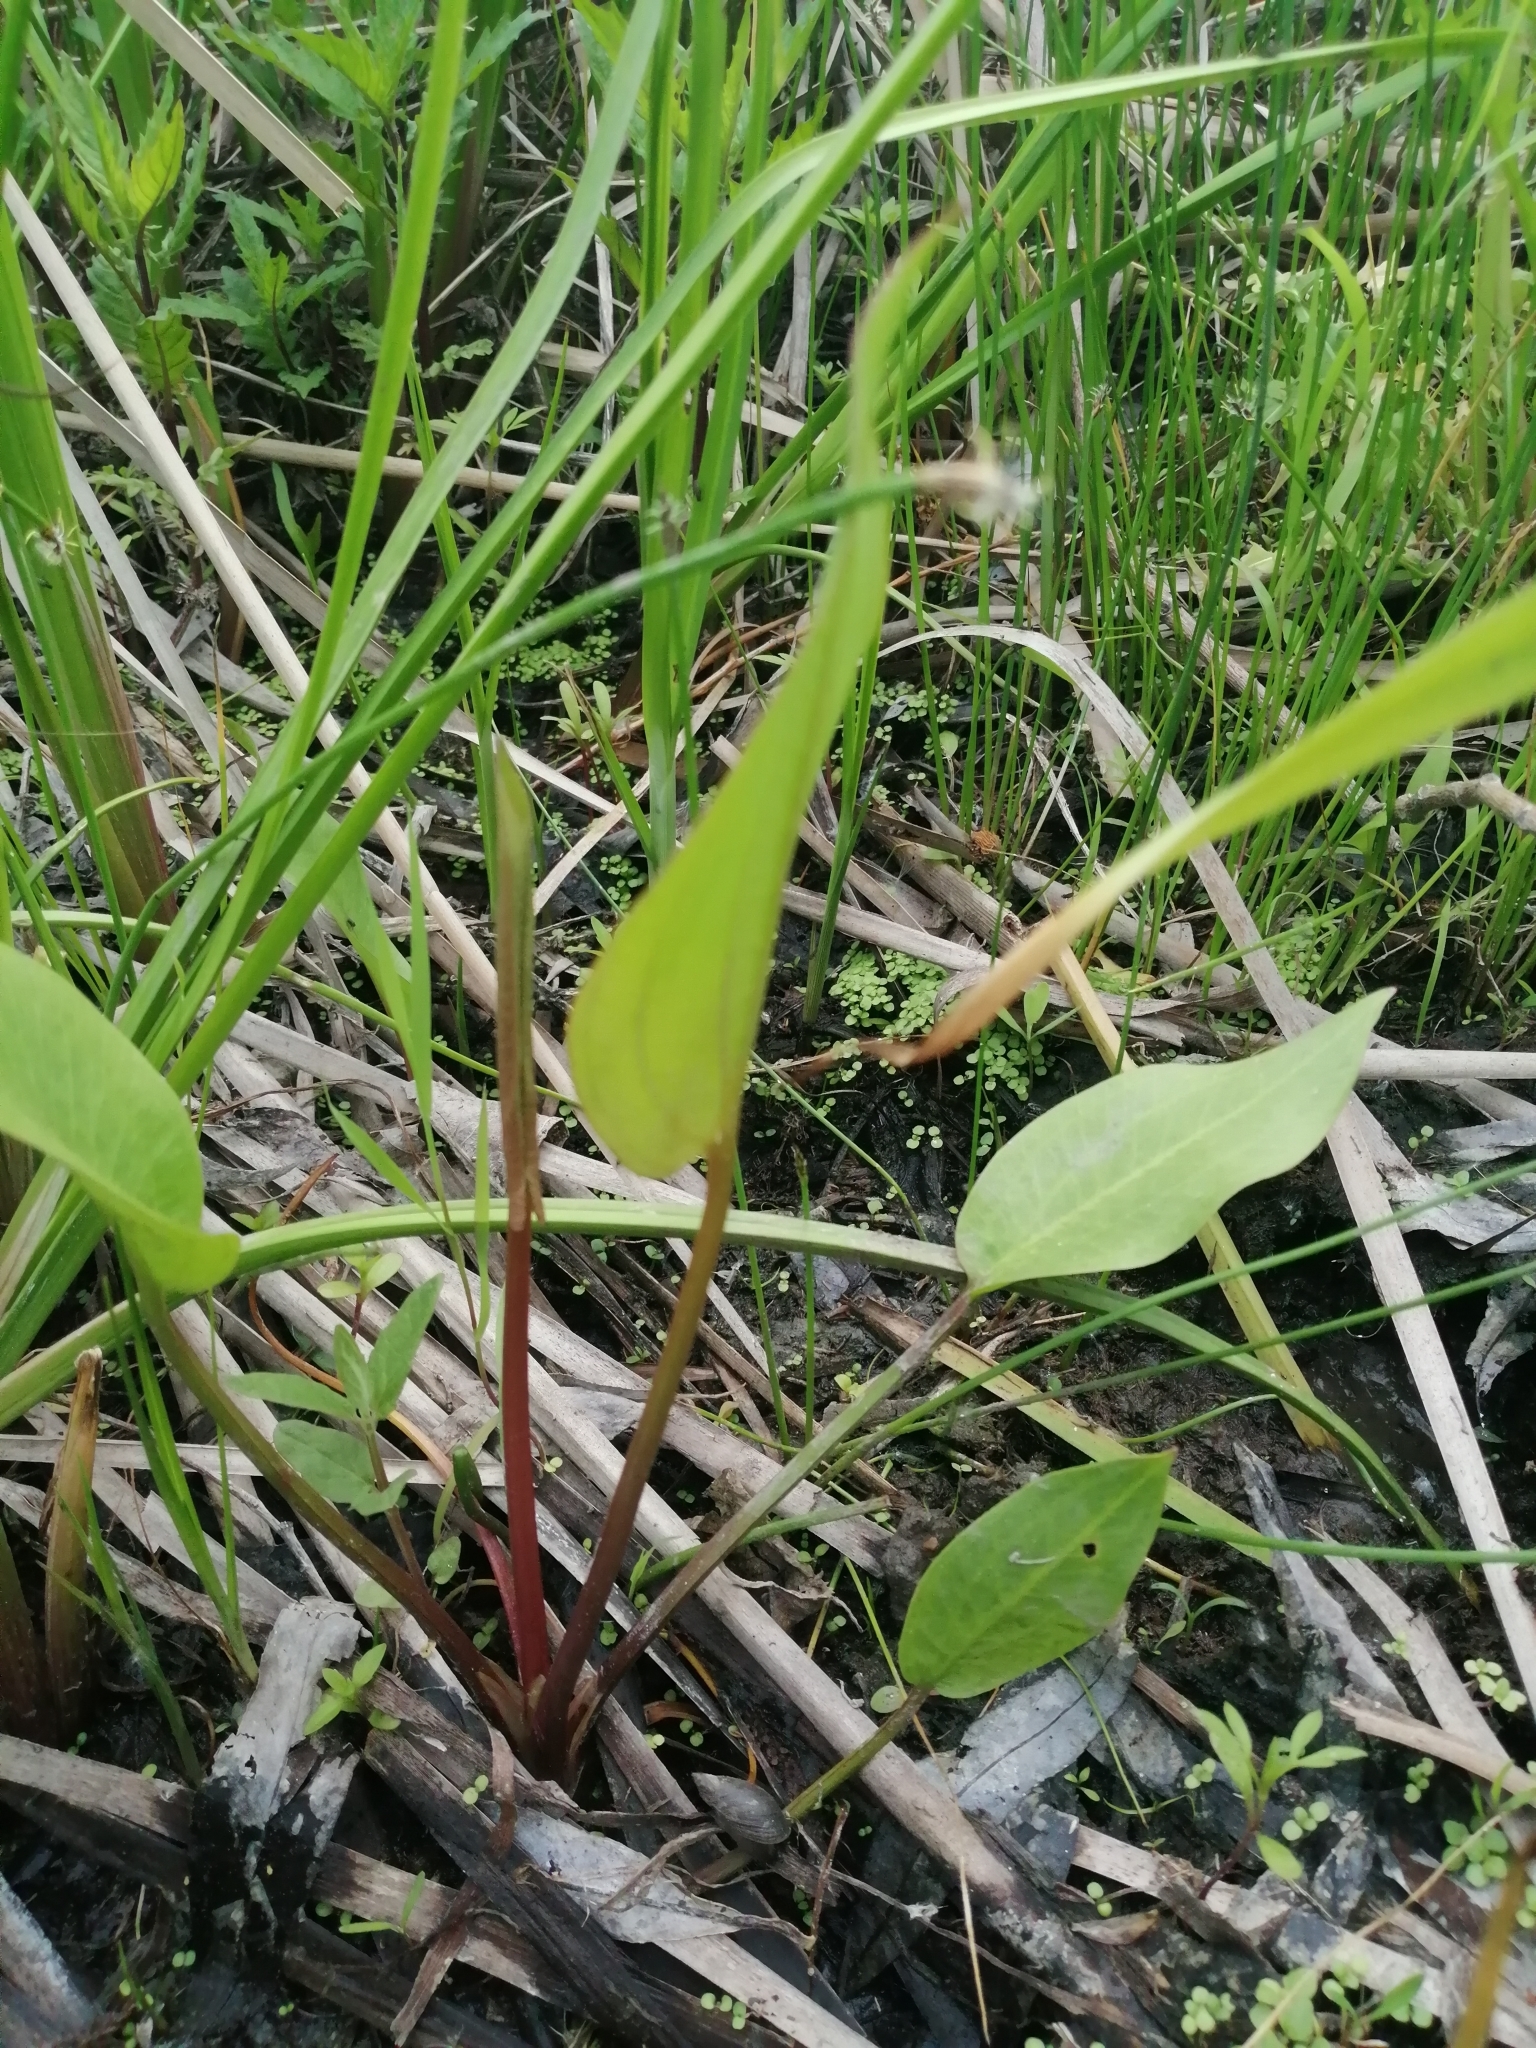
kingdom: Plantae
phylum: Tracheophyta
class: Liliopsida
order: Alismatales
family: Alismataceae
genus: Alisma
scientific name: Alisma plantago-aquatica
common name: Water-plantain
